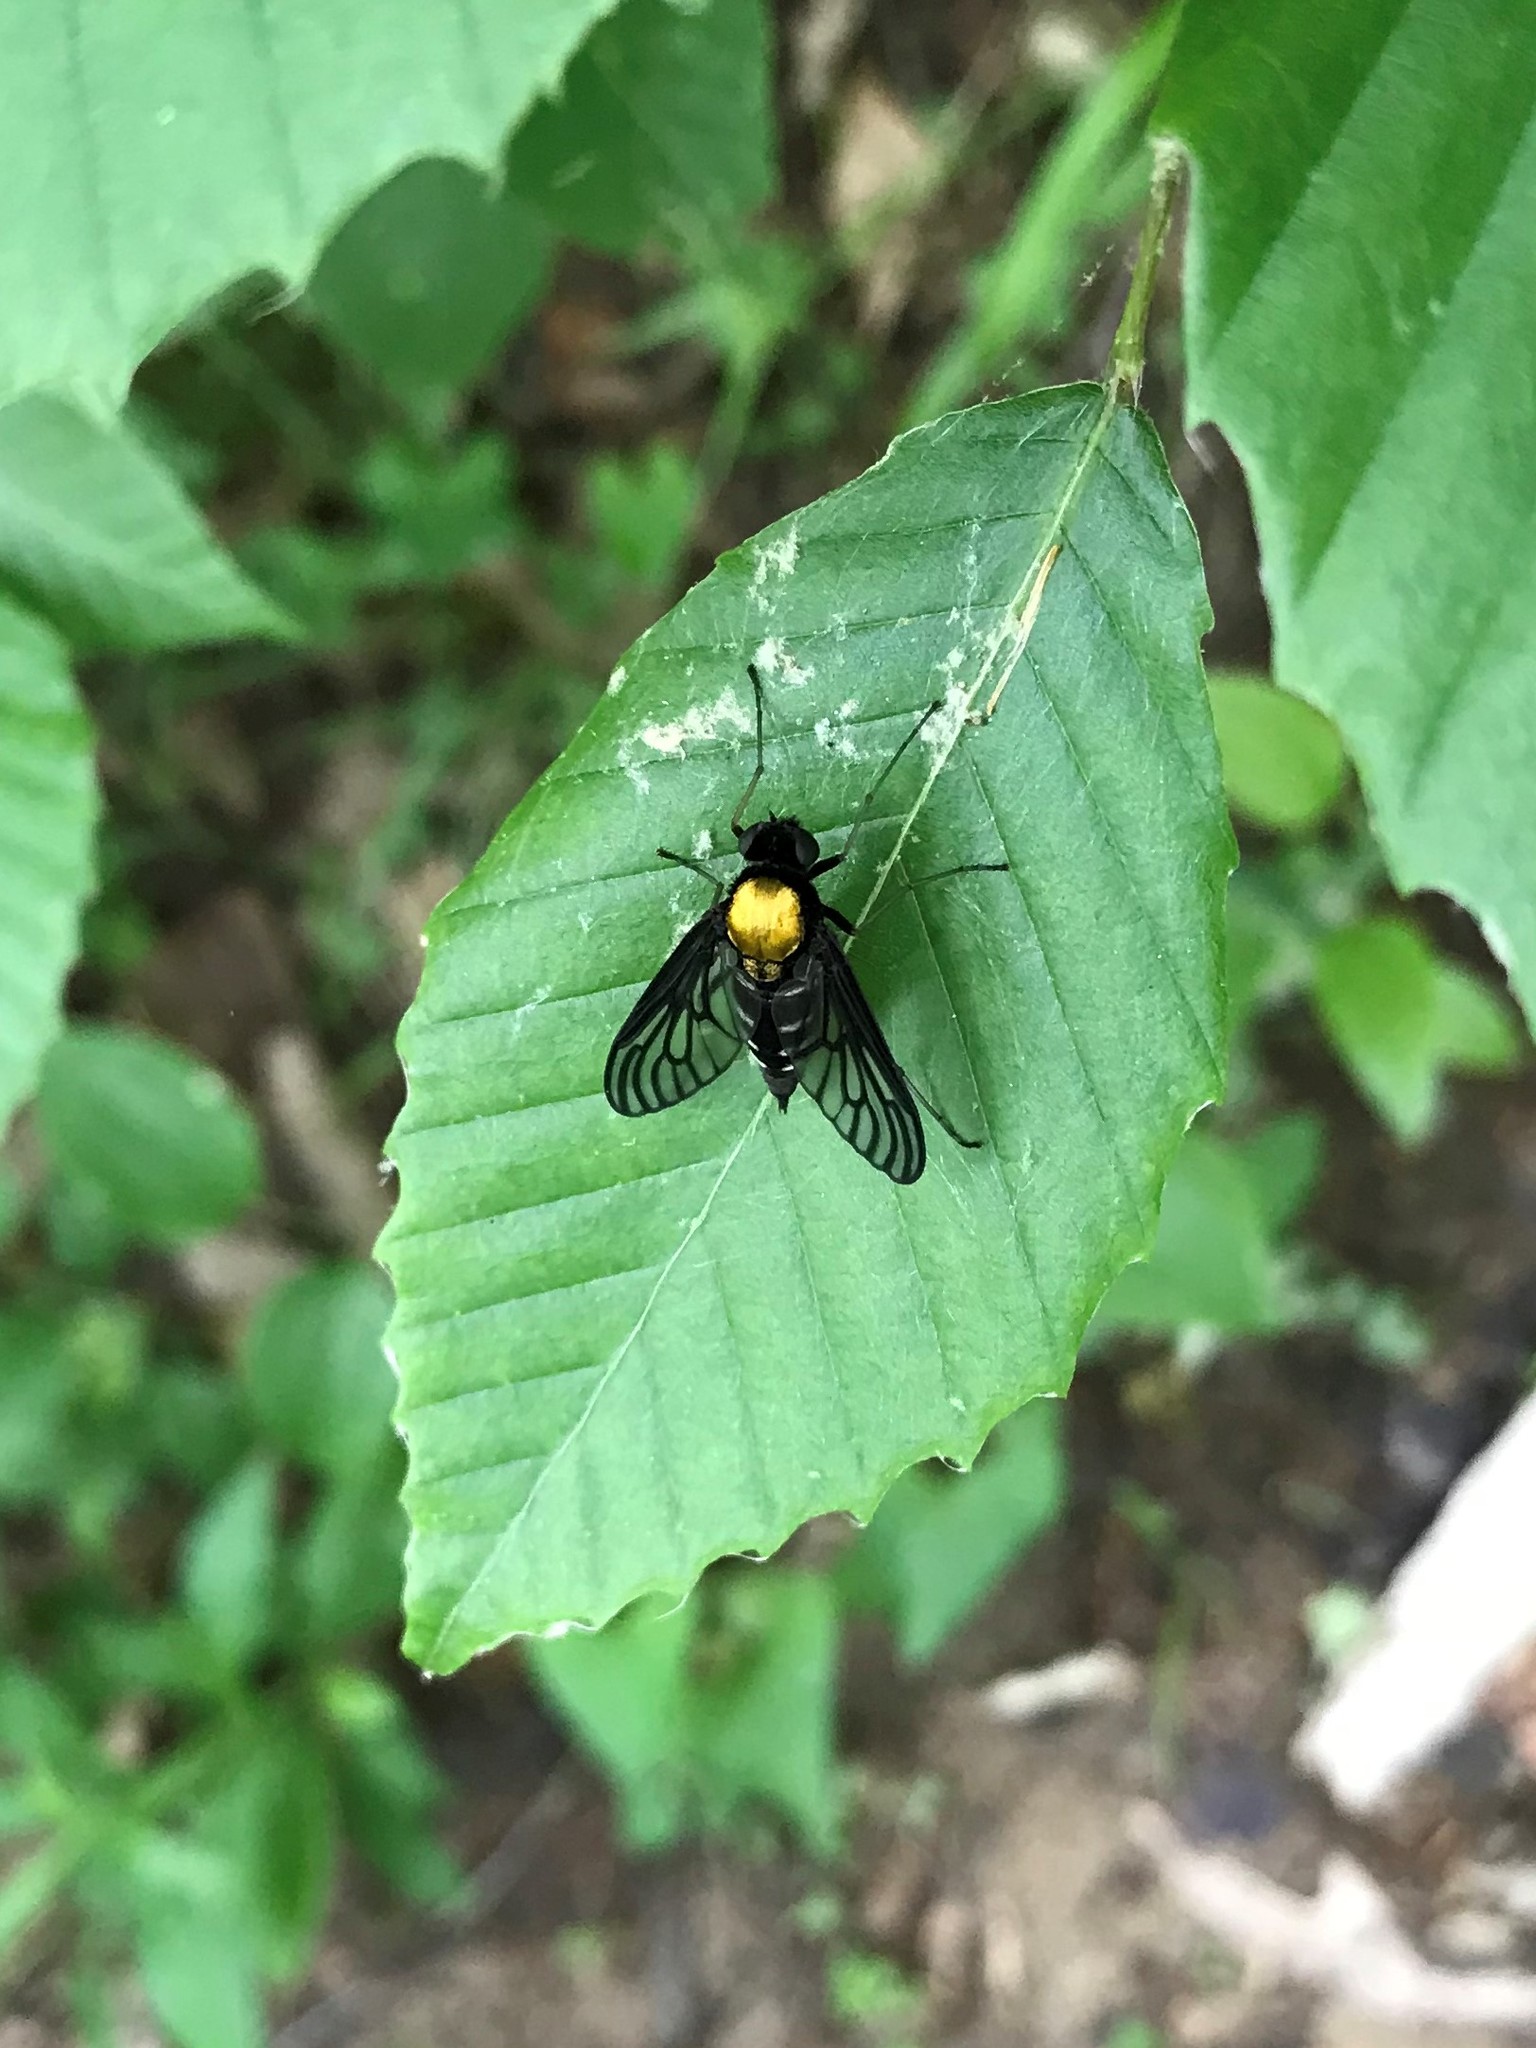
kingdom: Animalia
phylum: Arthropoda
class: Insecta
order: Diptera
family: Rhagionidae
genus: Chrysopilus
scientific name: Chrysopilus thoracicus
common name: Golden-backed snipe fly
